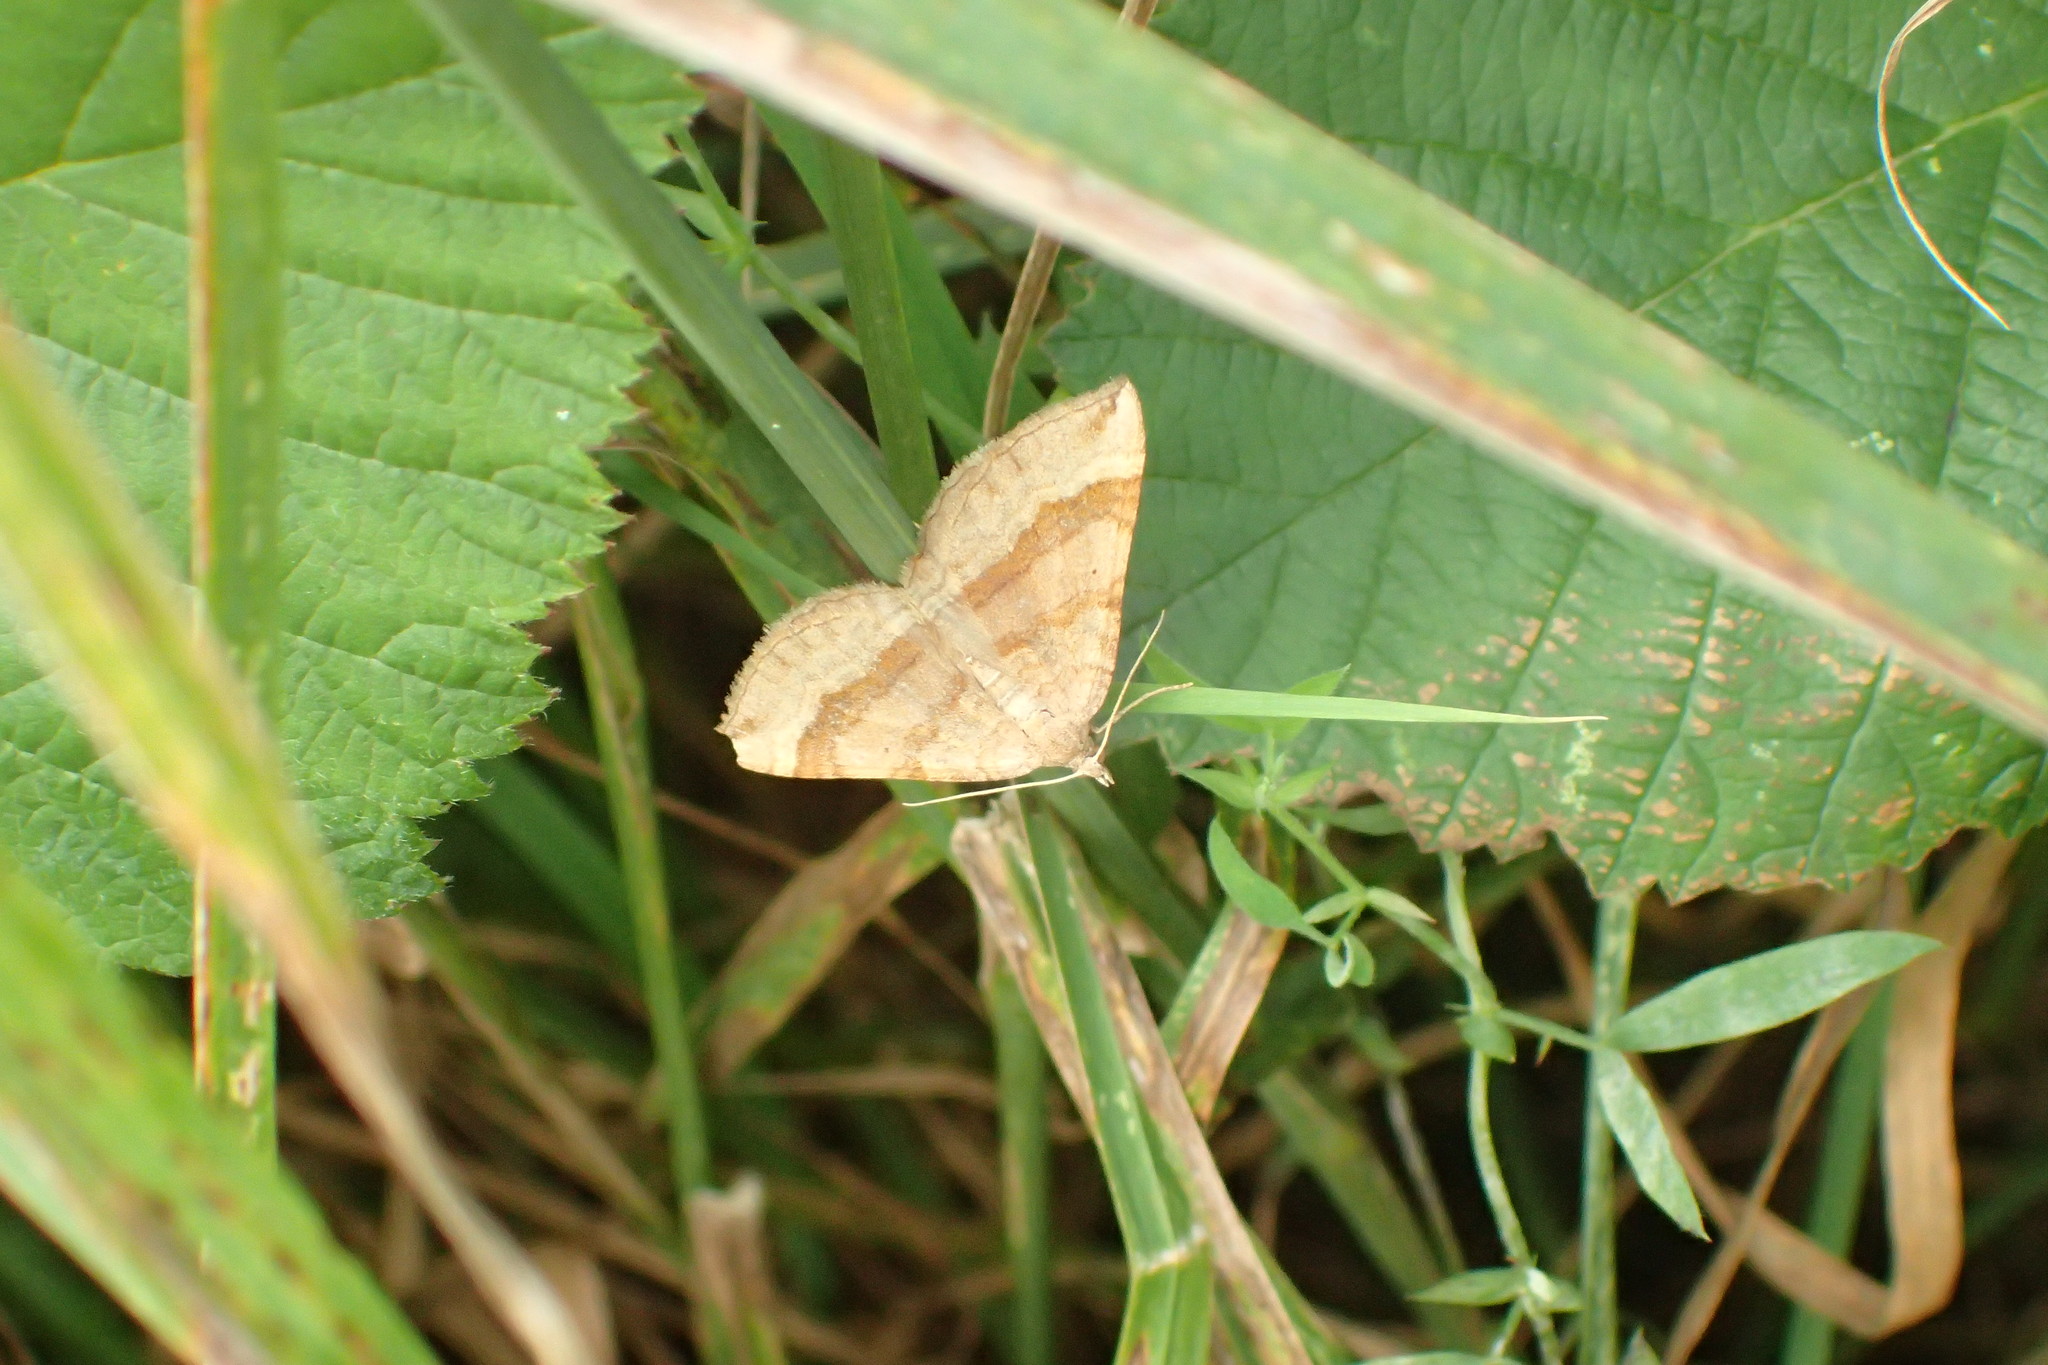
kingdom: Animalia
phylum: Arthropoda
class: Insecta
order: Lepidoptera
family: Geometridae
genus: Scotopteryx
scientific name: Scotopteryx chenopodiata
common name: Shaded broad-bar
